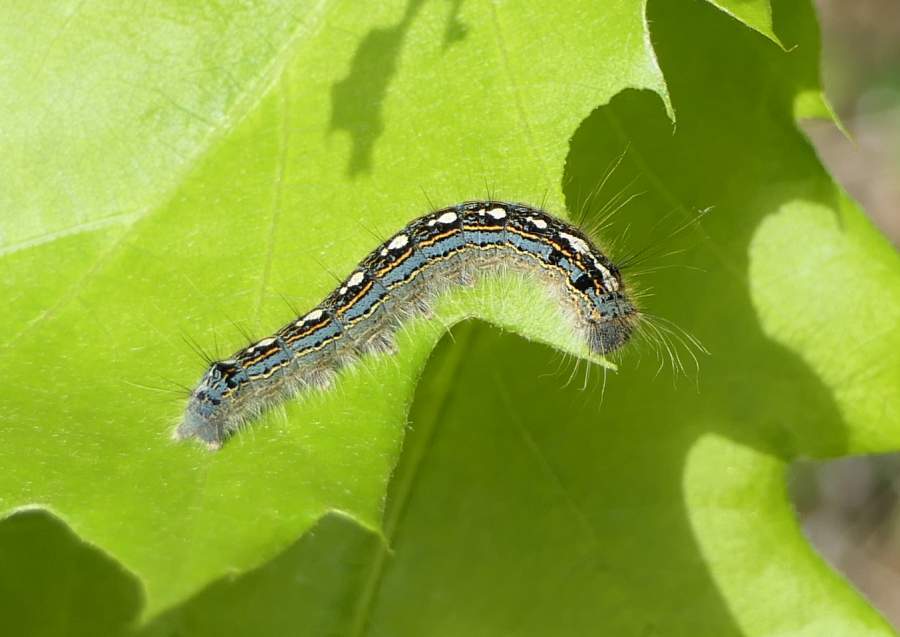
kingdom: Animalia
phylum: Arthropoda
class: Insecta
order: Lepidoptera
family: Lasiocampidae
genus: Malacosoma
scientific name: Malacosoma disstria
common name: Forest tent caterpillar
